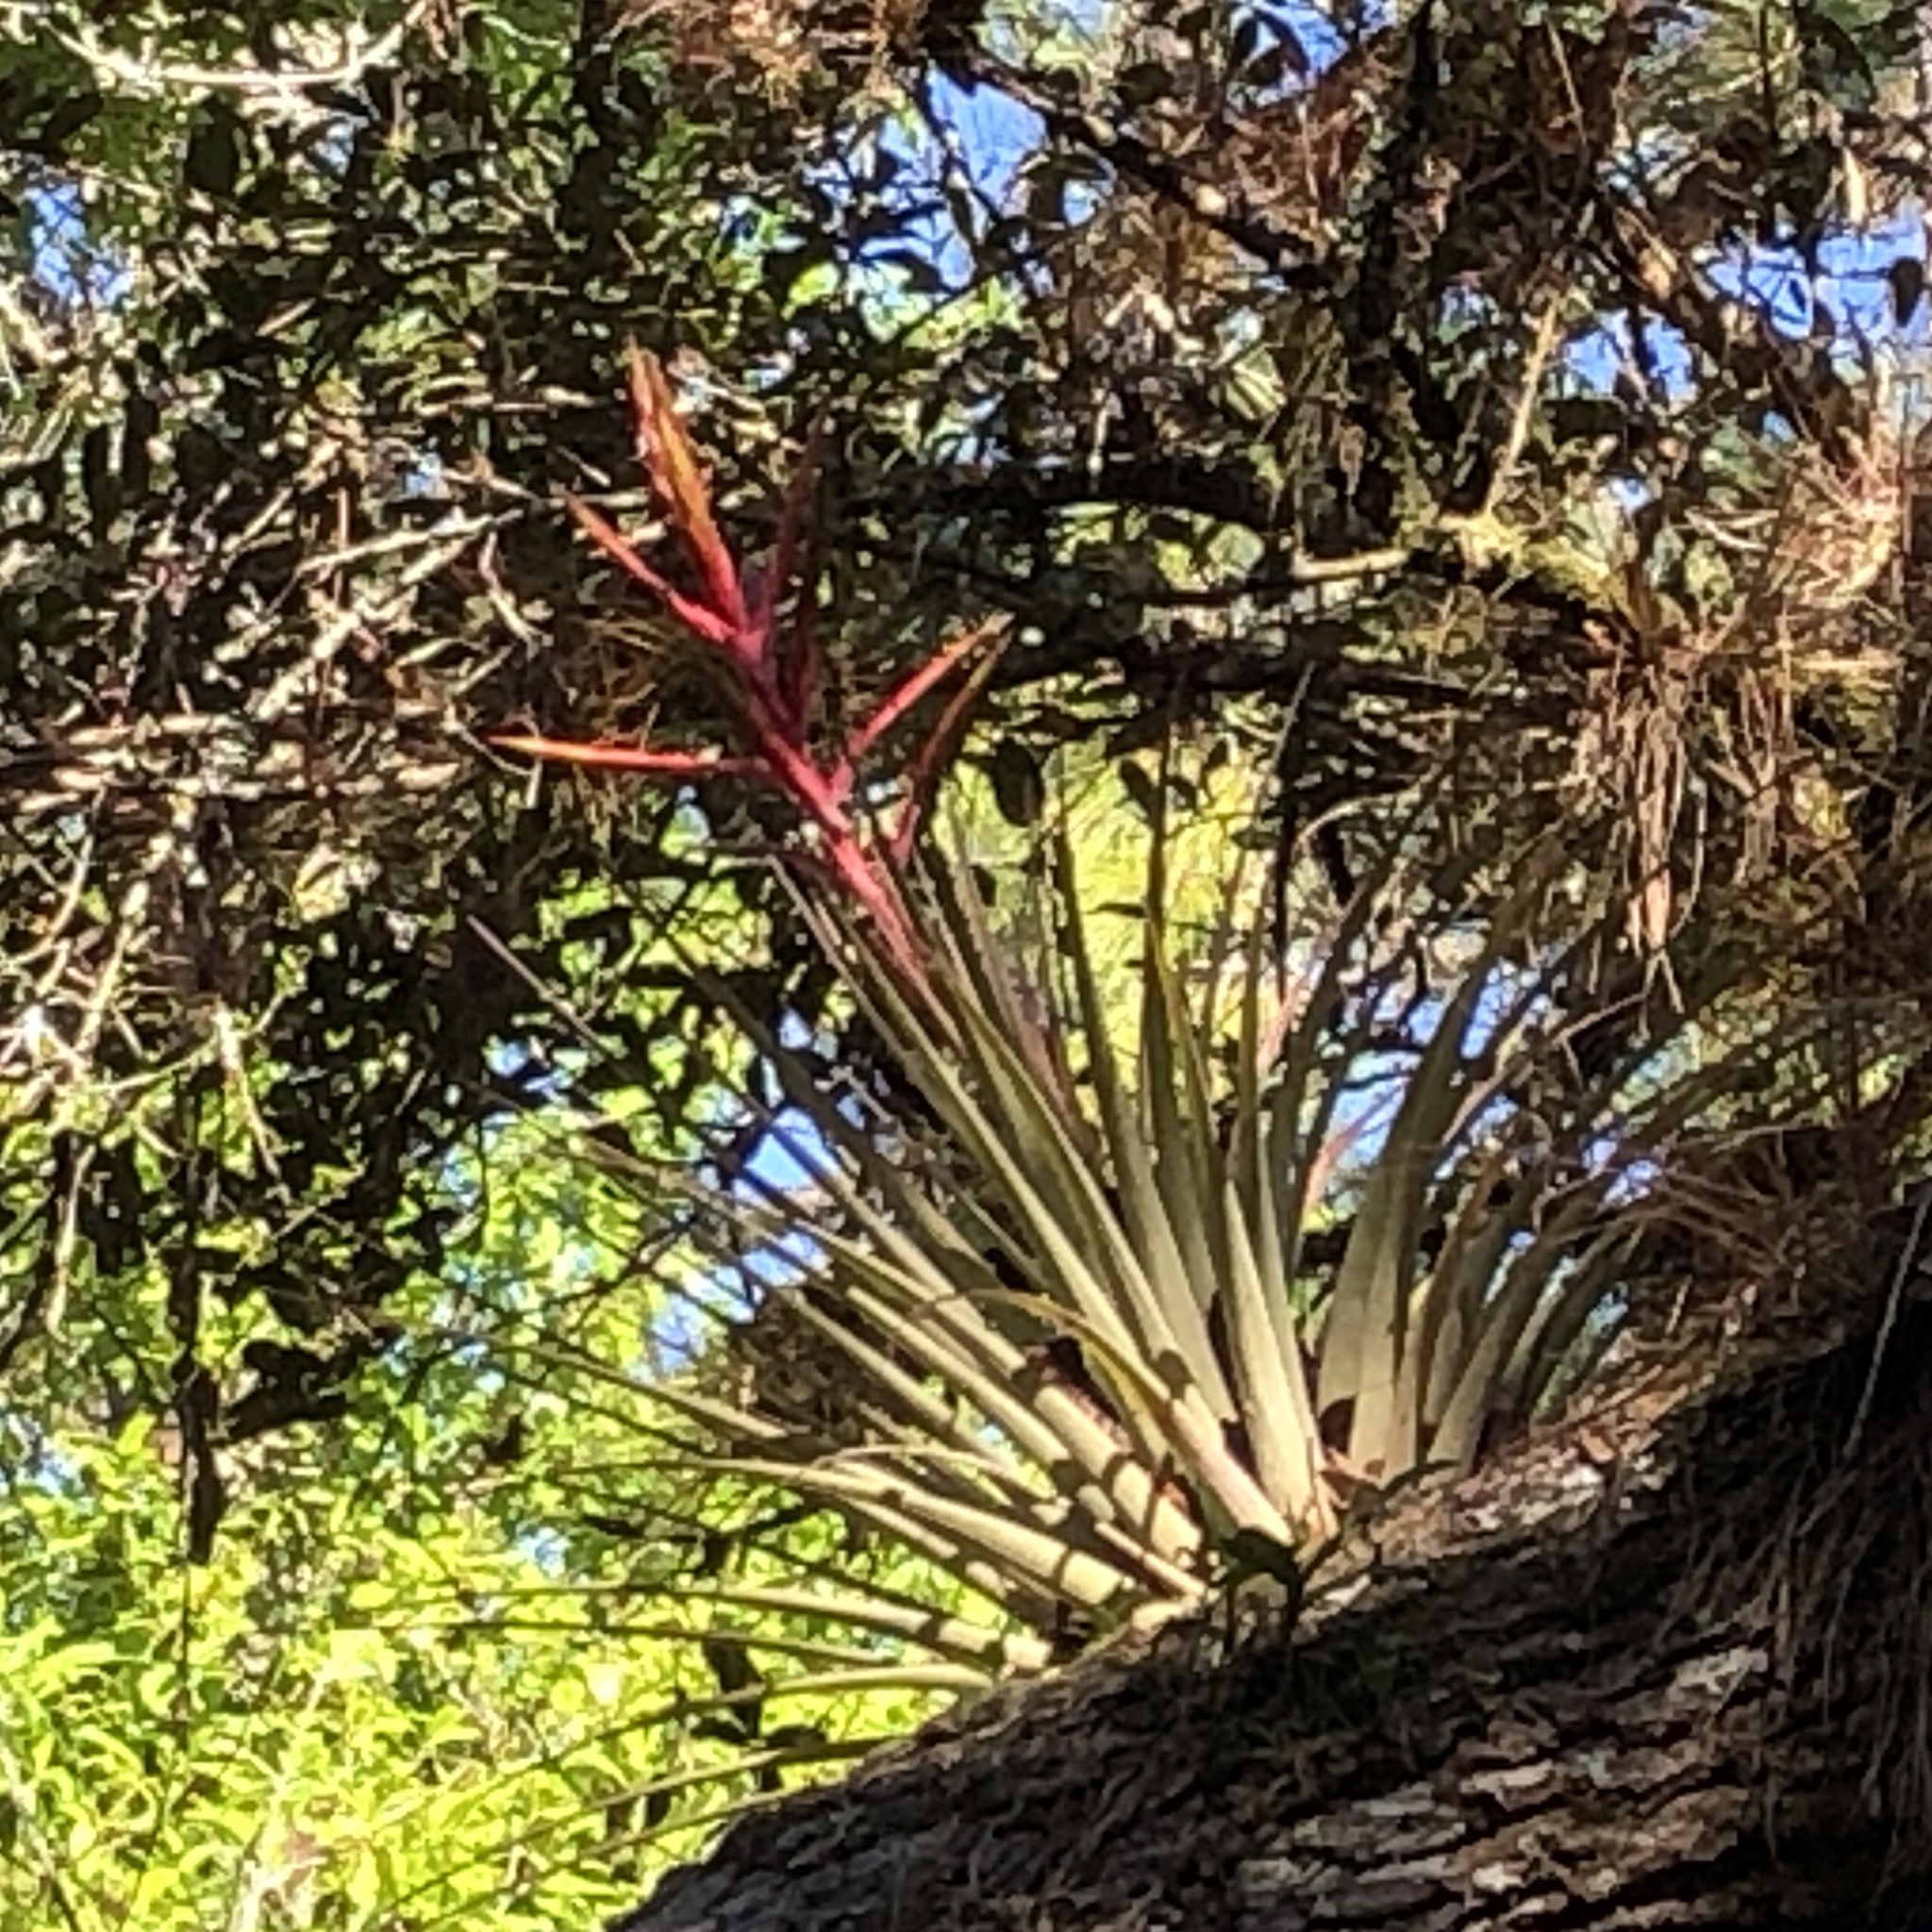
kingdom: Plantae
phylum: Tracheophyta
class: Liliopsida
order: Poales
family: Bromeliaceae
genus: Tillandsia
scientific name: Tillandsia fasciculata
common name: Giant airplant
